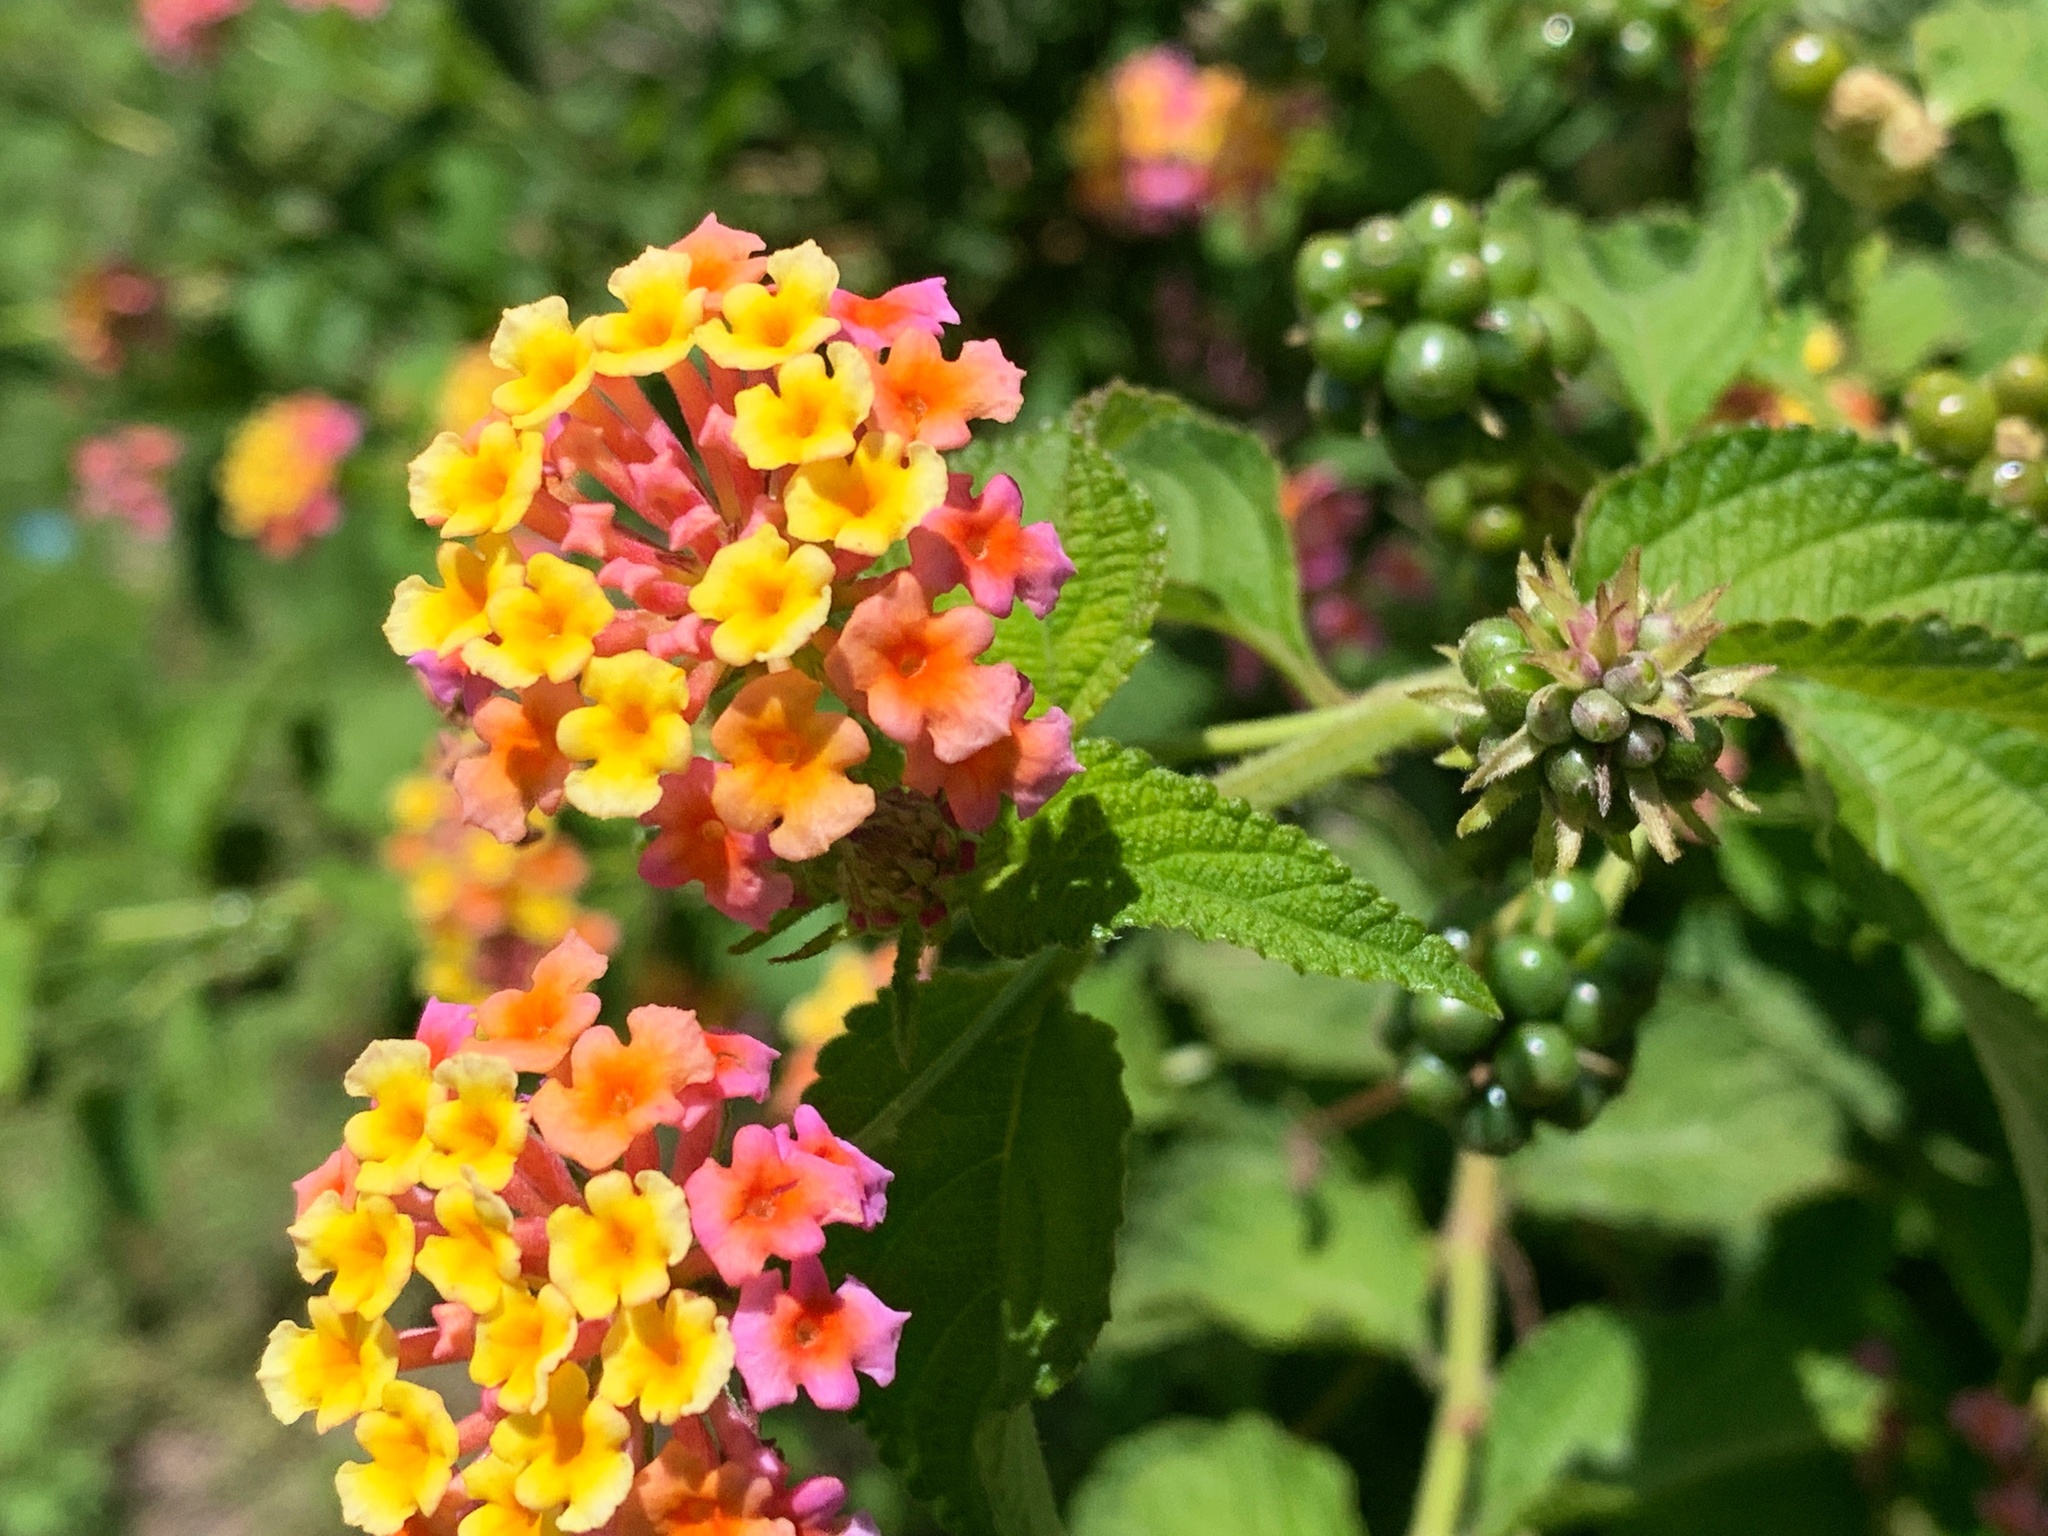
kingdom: Plantae
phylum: Tracheophyta
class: Magnoliopsida
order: Lamiales
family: Verbenaceae
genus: Lantana
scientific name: Lantana camara
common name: Lantana
